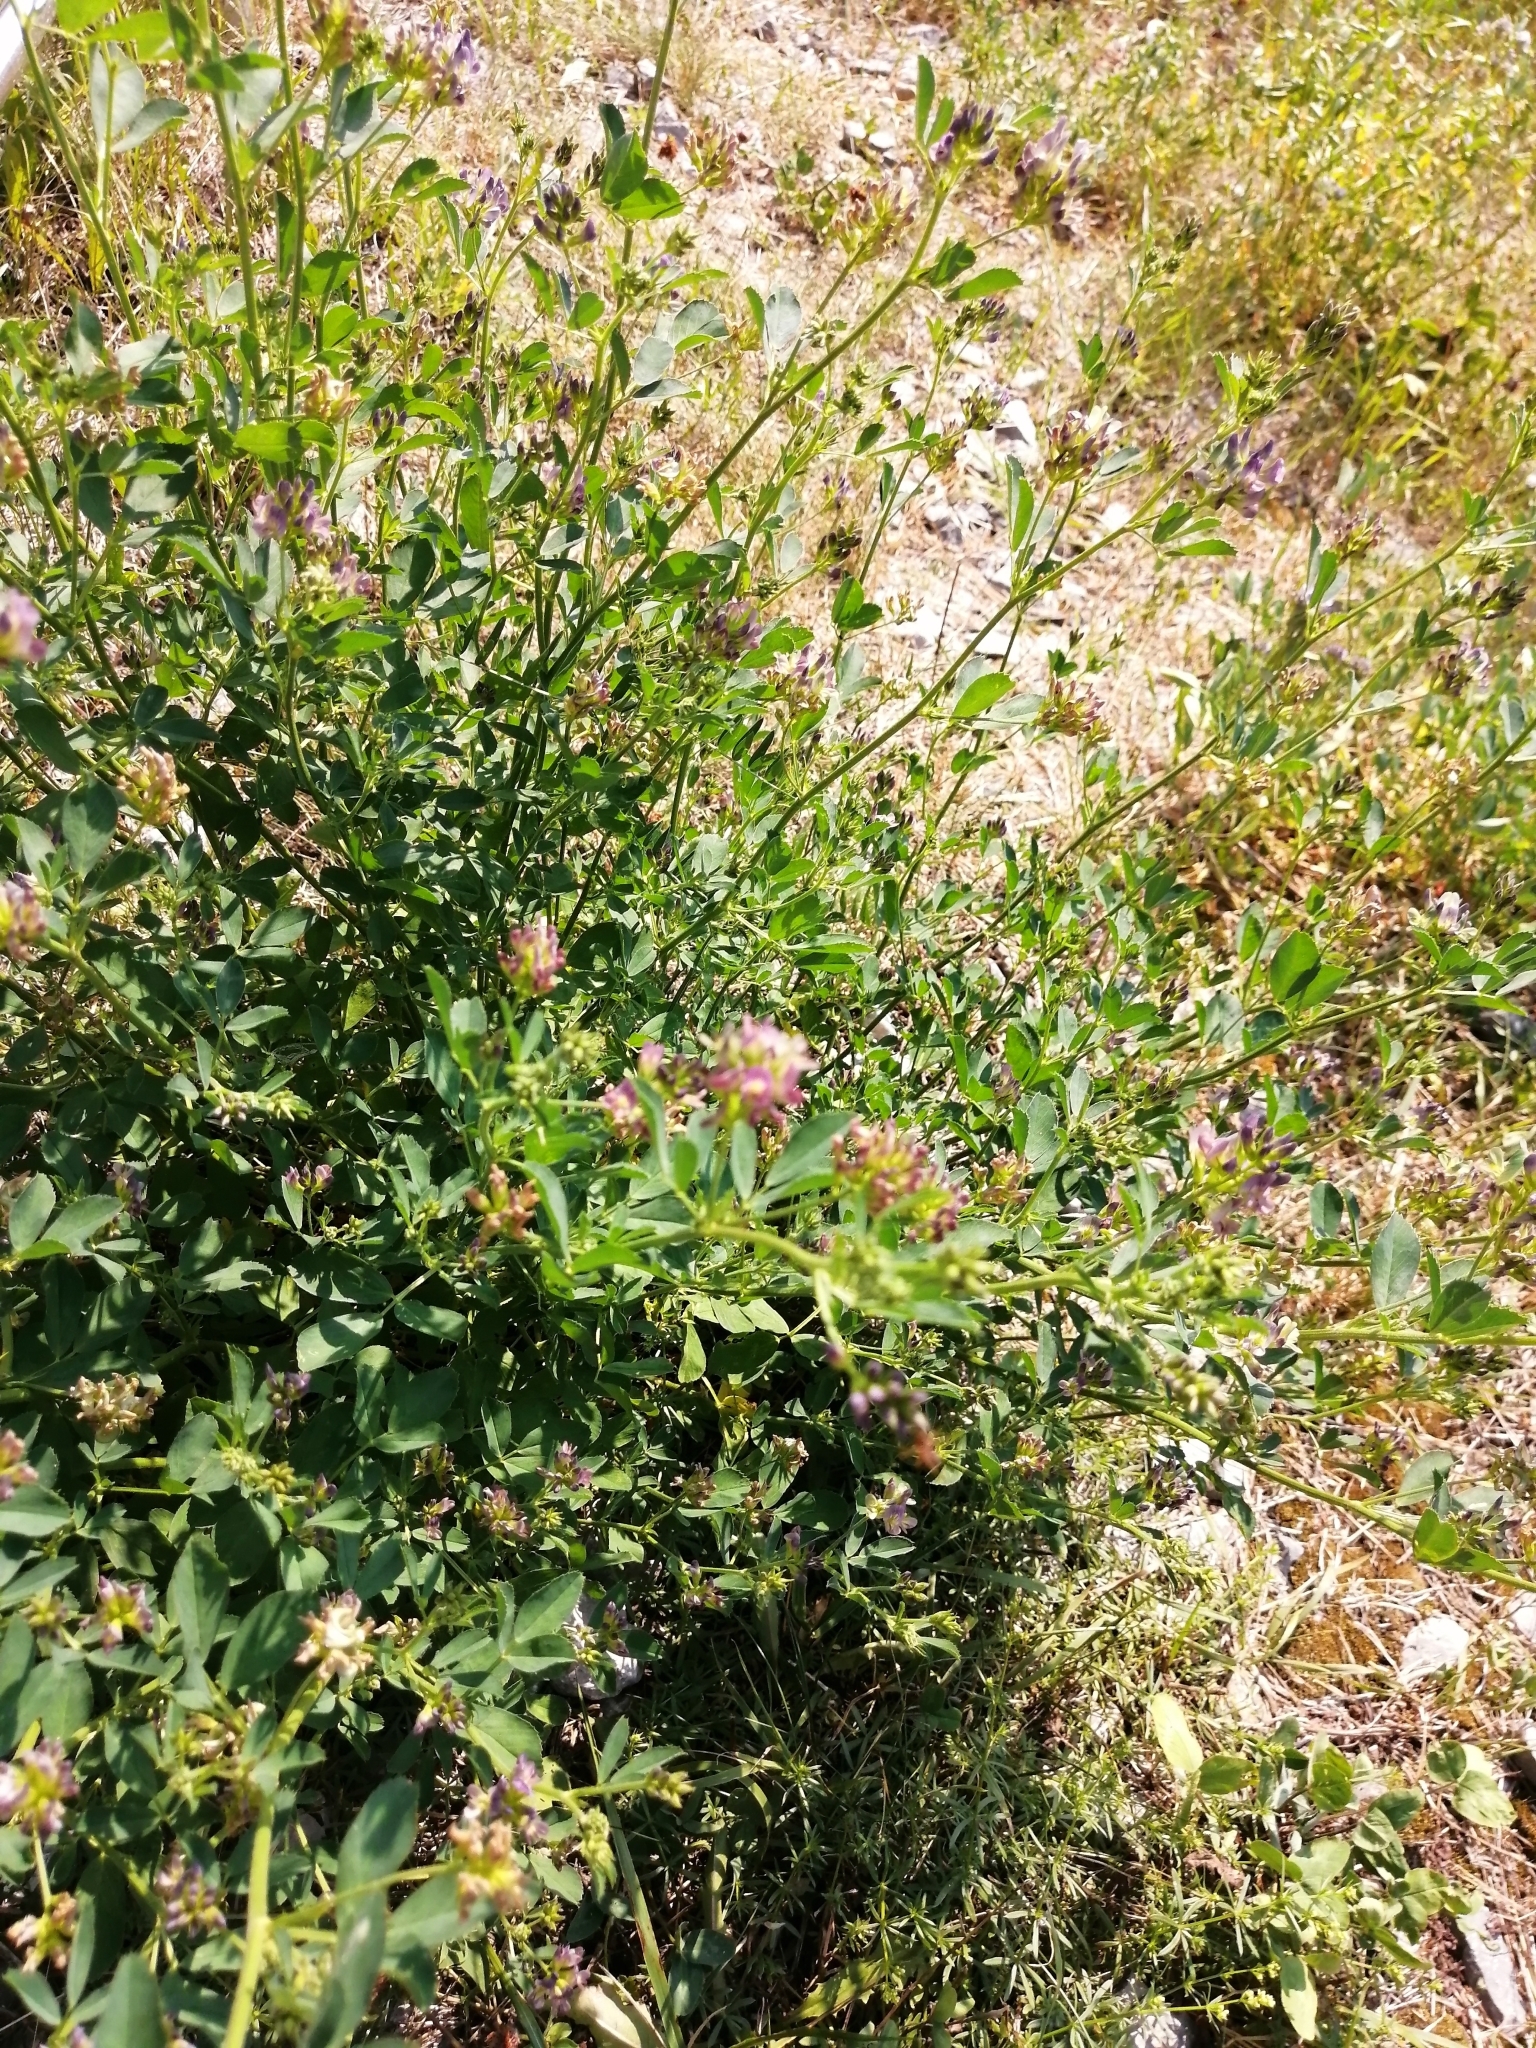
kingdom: Plantae
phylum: Tracheophyta
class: Magnoliopsida
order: Fabales
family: Fabaceae
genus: Medicago
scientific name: Medicago varia
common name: Sand lucerne
